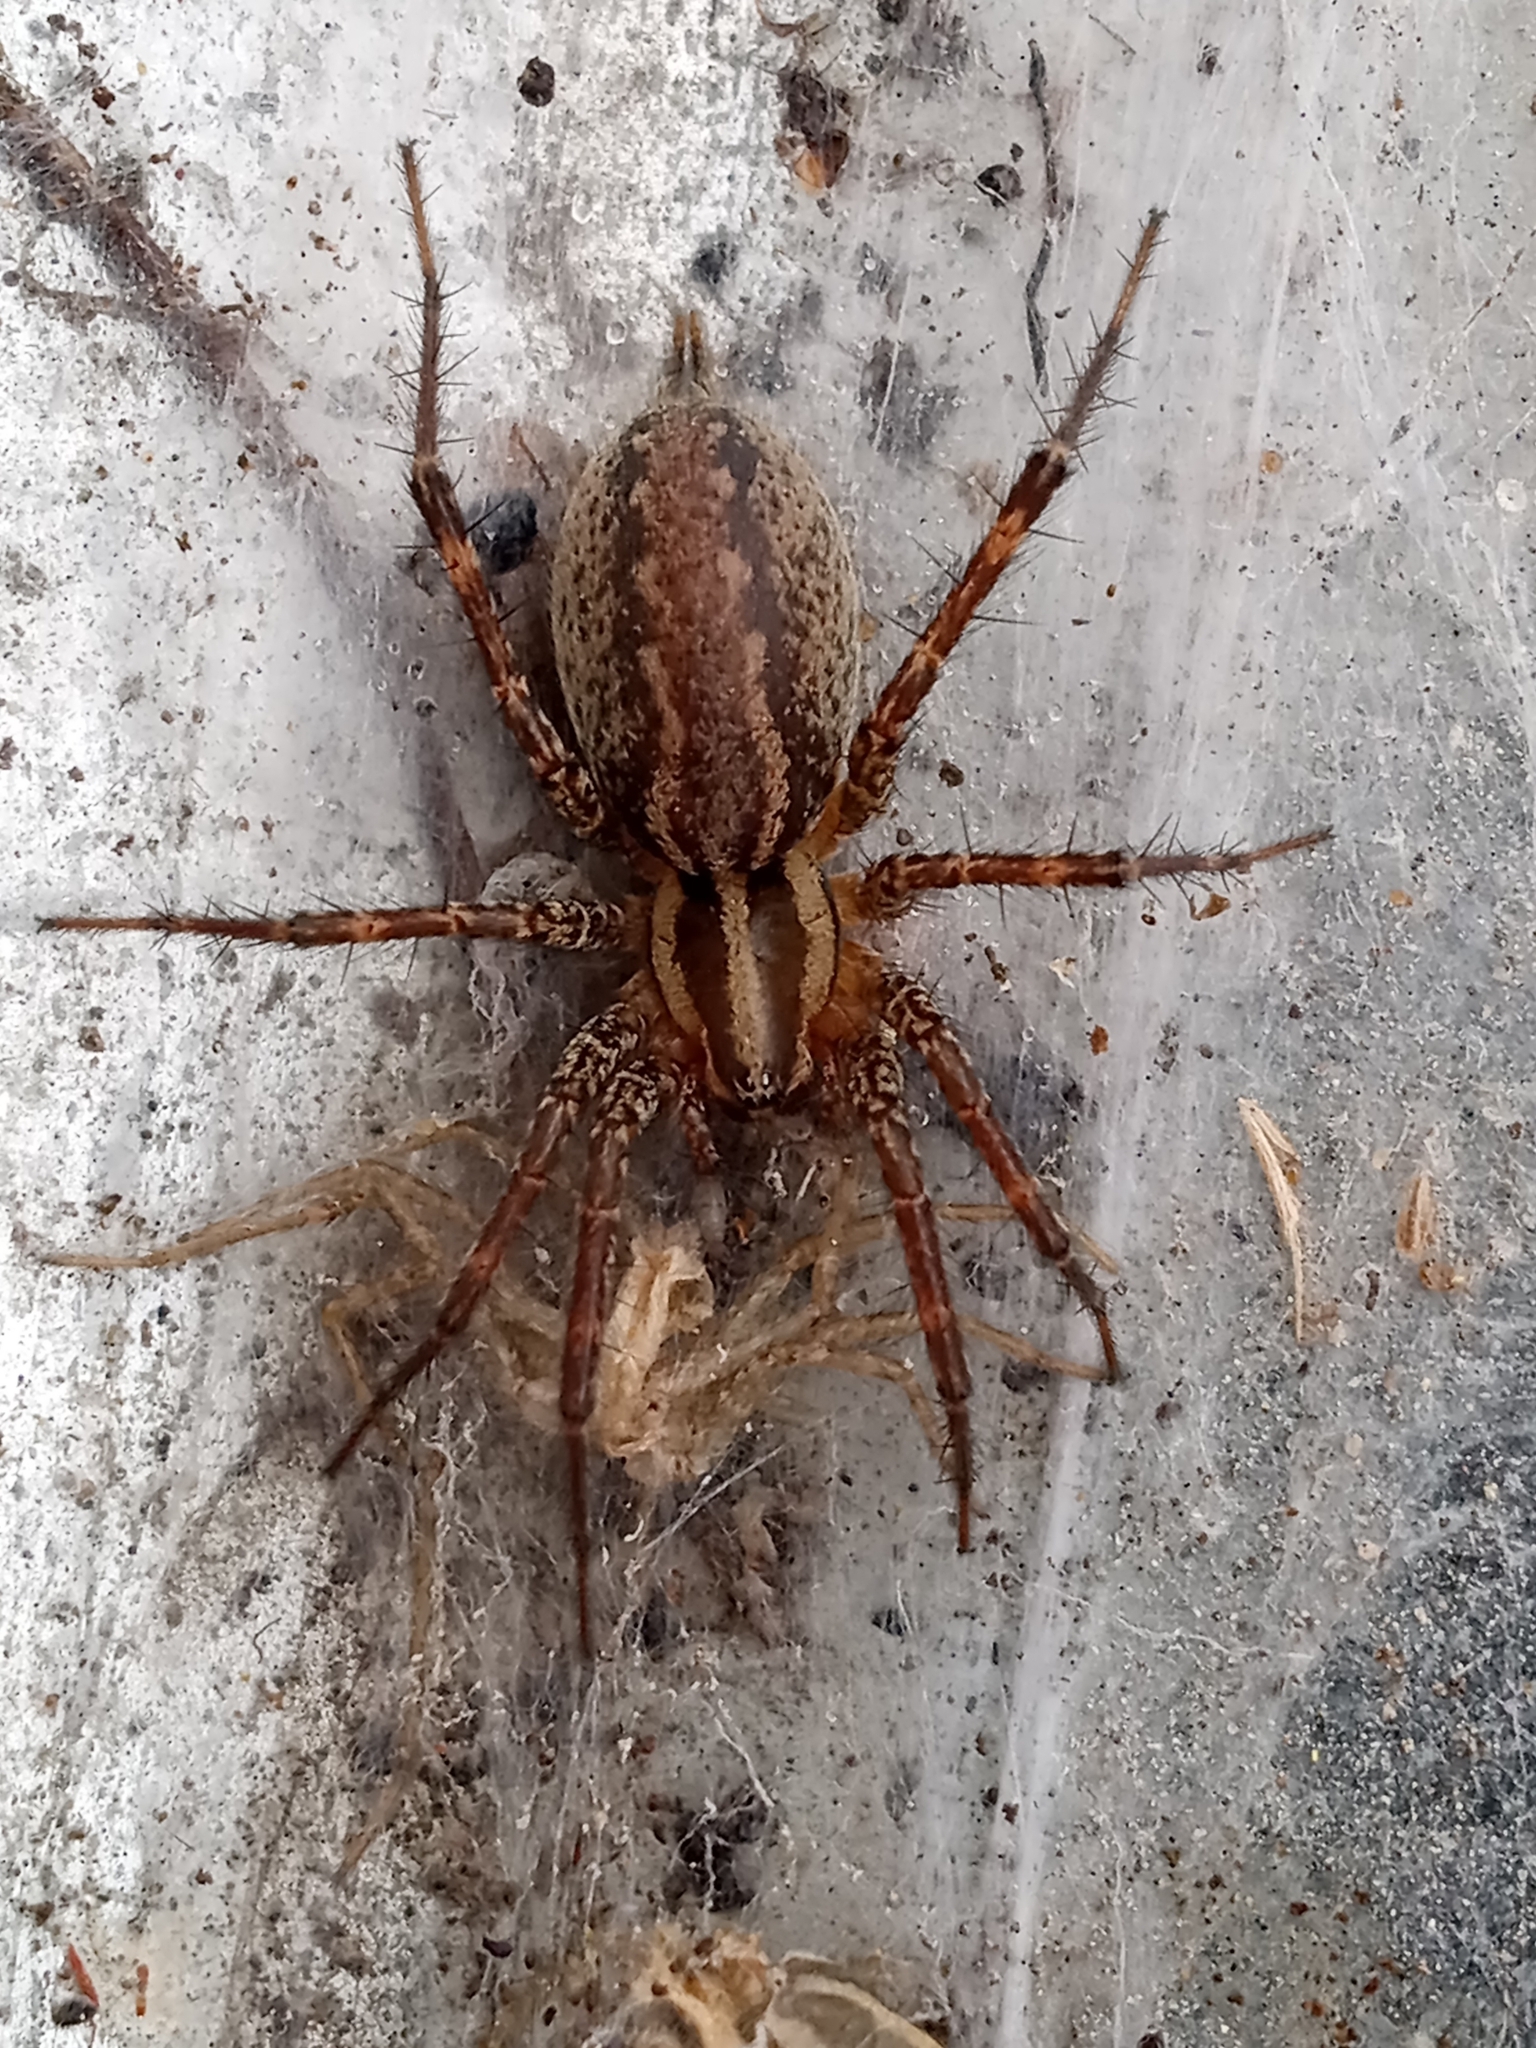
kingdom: Animalia
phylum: Arthropoda
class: Arachnida
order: Araneae
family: Agelenidae
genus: Agelenopsis
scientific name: Agelenopsis
